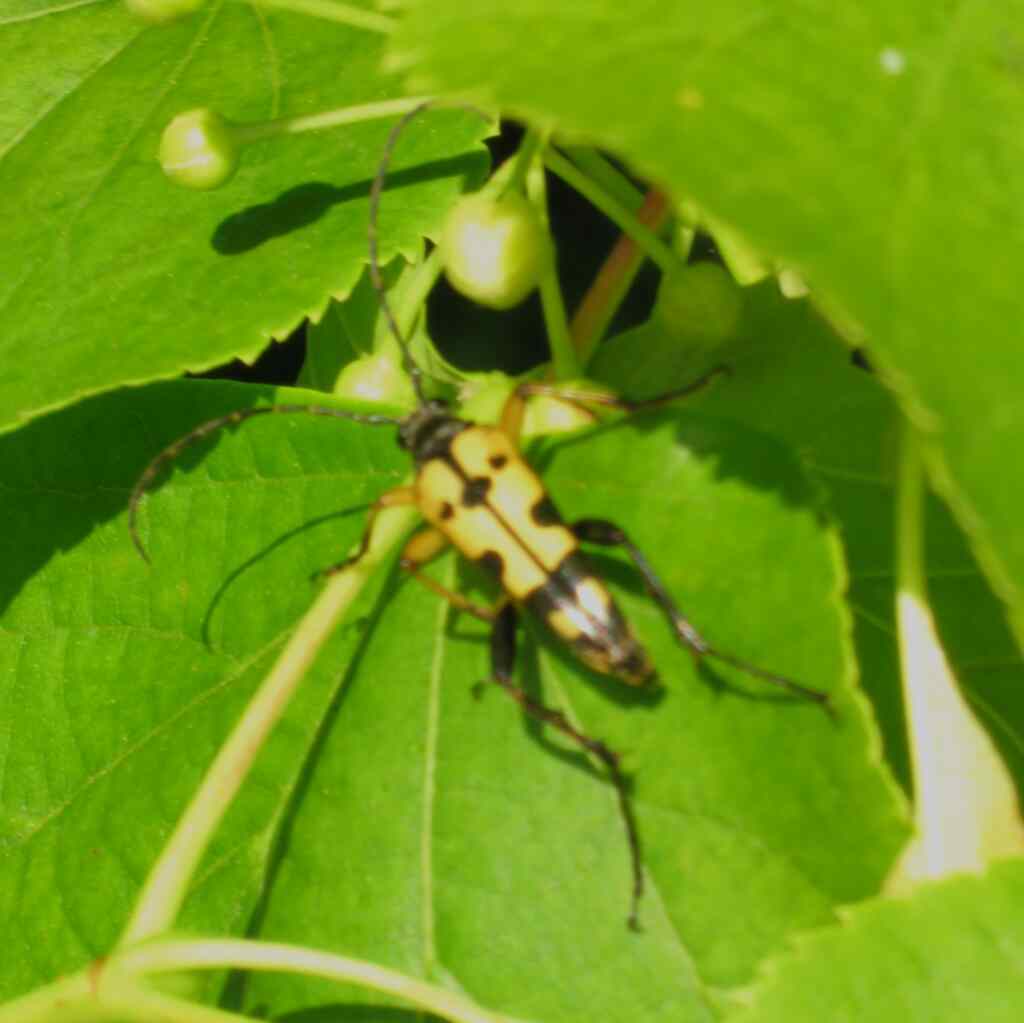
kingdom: Animalia
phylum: Arthropoda
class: Insecta
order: Coleoptera
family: Cerambycidae
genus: Rutpela
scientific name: Rutpela maculata
